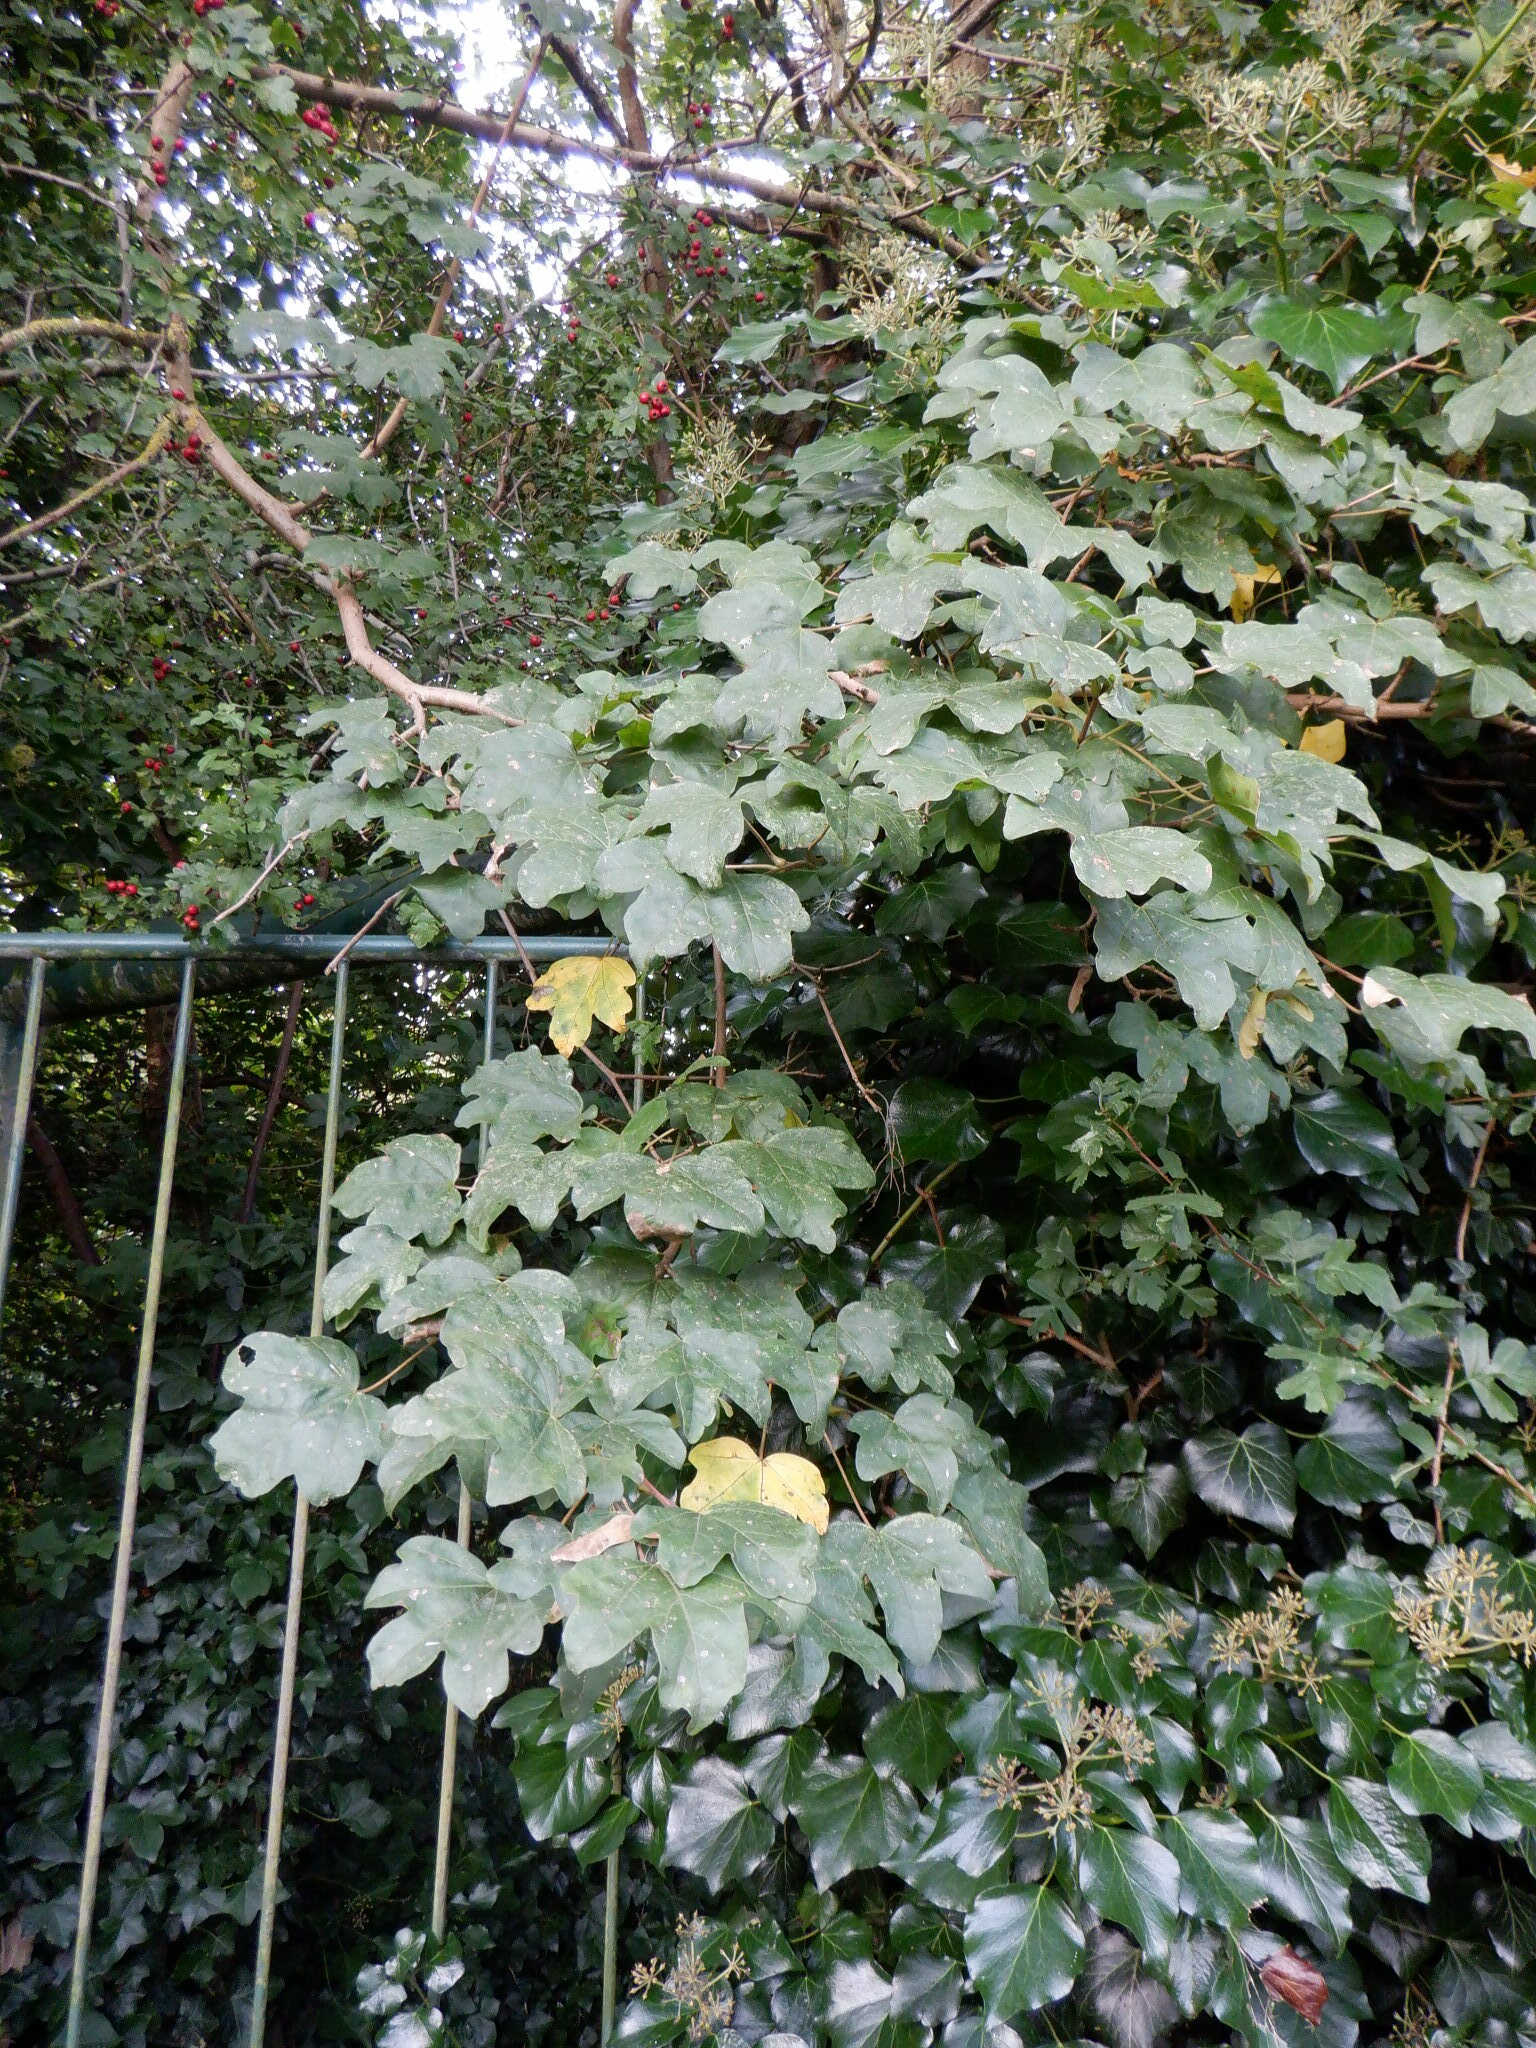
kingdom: Plantae
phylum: Tracheophyta
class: Magnoliopsida
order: Sapindales
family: Sapindaceae
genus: Acer
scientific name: Acer campestre
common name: Field maple
